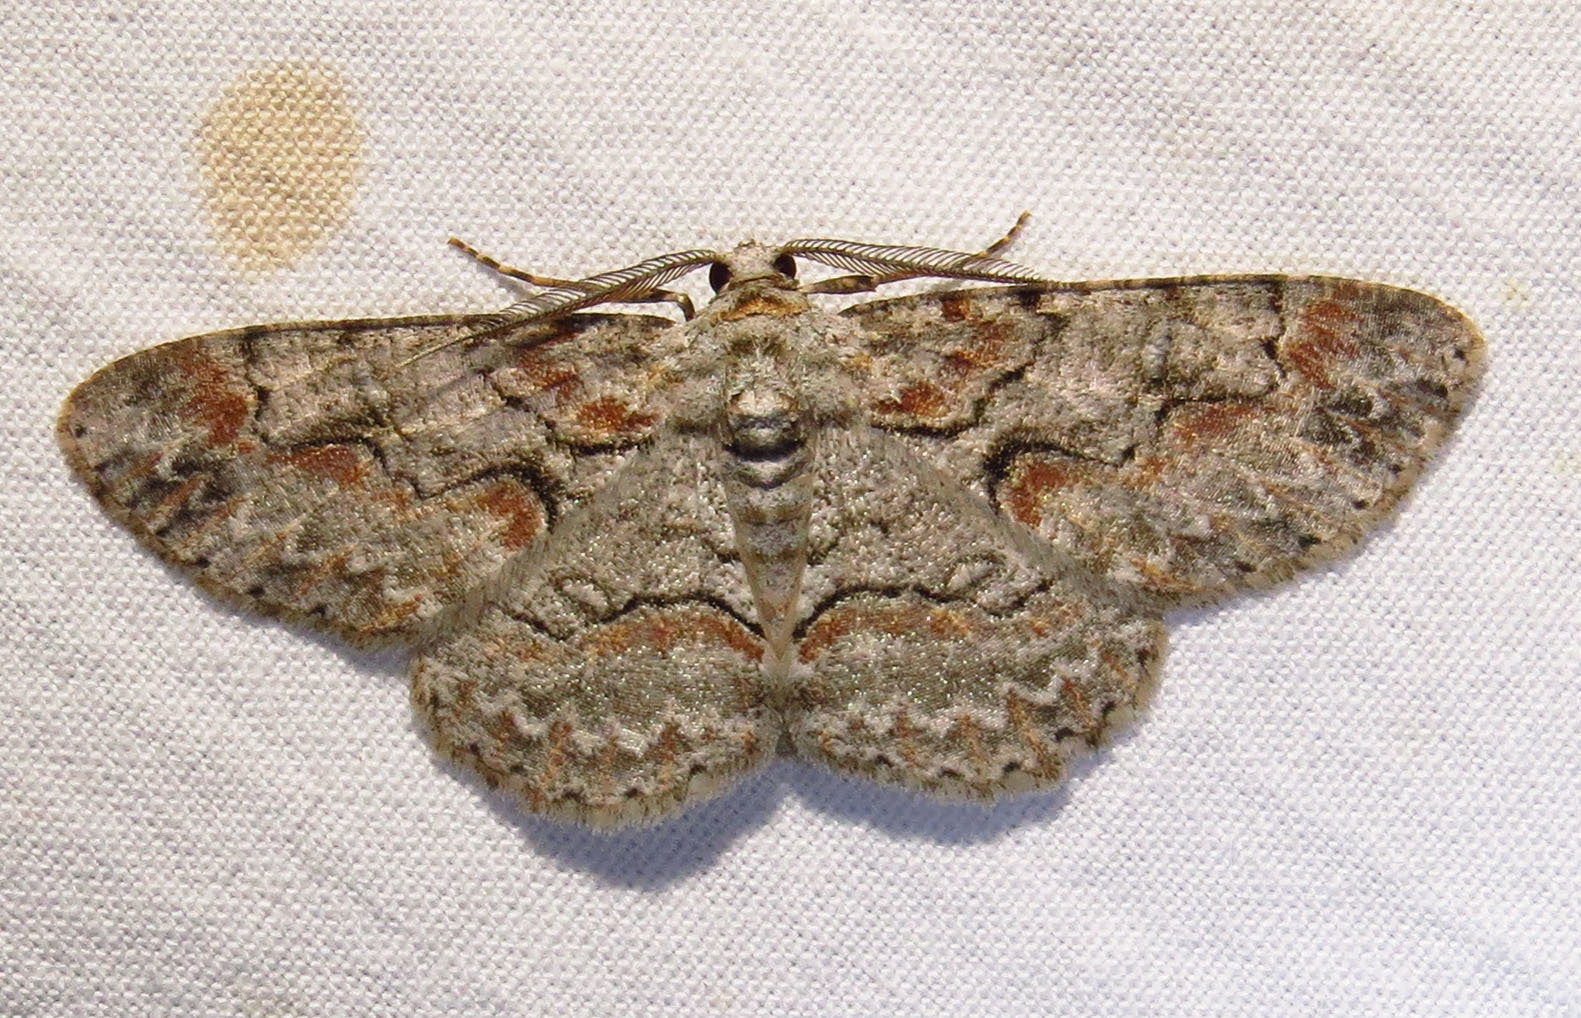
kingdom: Animalia
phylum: Arthropoda
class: Insecta
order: Lepidoptera
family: Geometridae
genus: Iridopsis
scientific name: Iridopsis defectaria
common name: Brown-shaded gray
